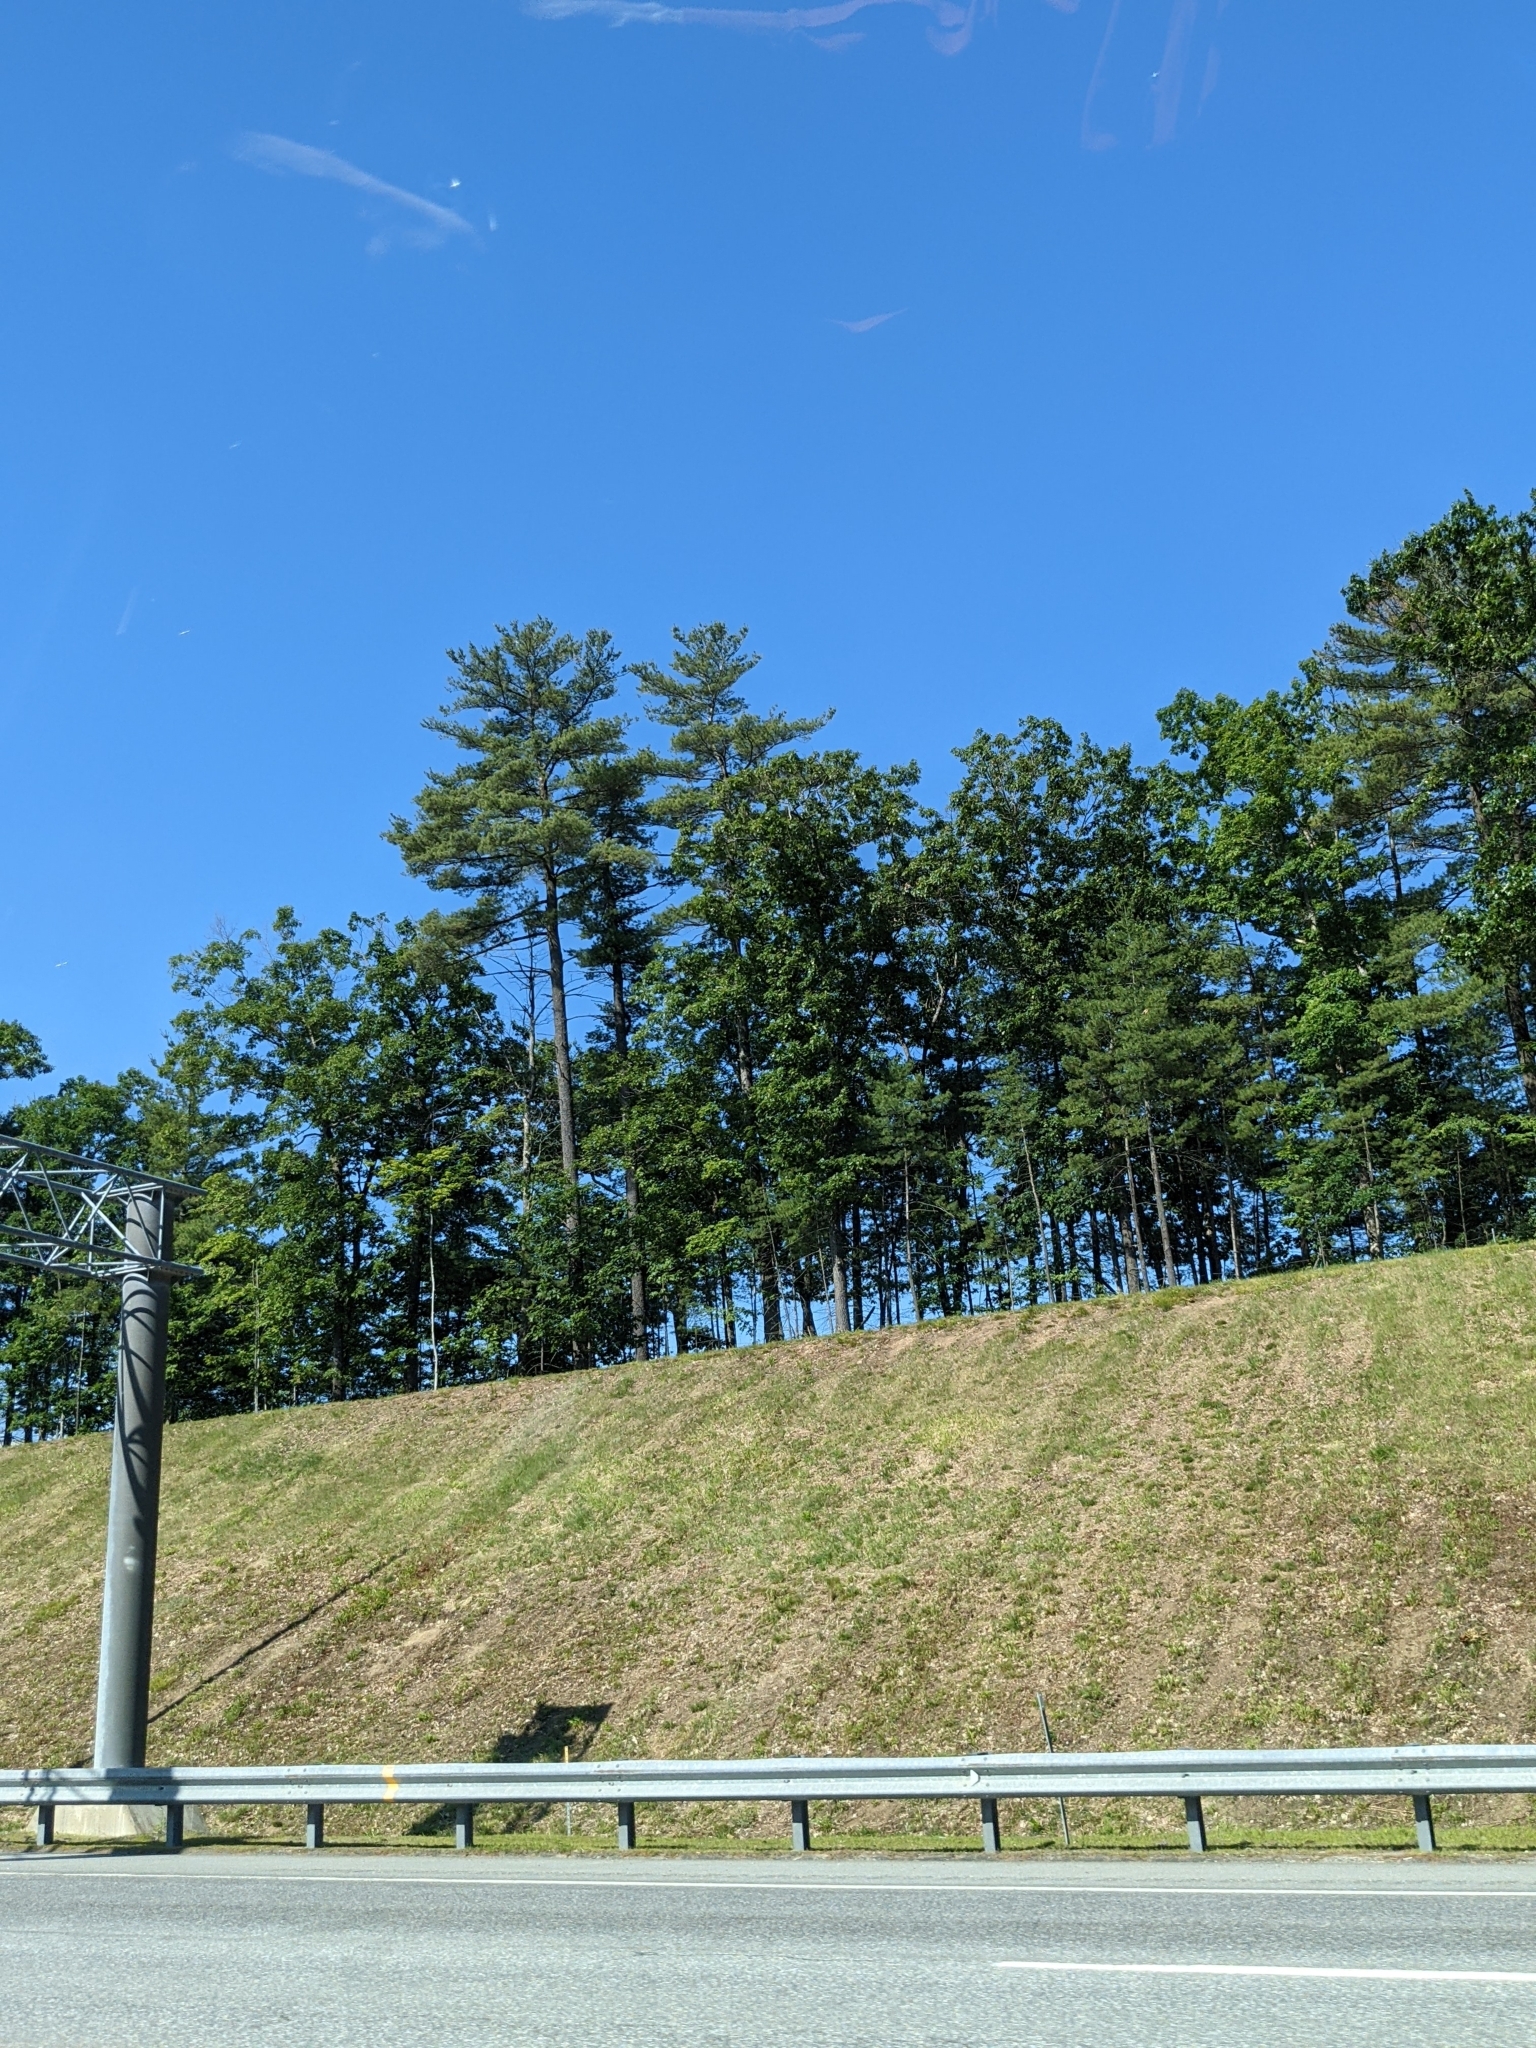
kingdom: Plantae
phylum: Tracheophyta
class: Pinopsida
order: Pinales
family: Pinaceae
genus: Pinus
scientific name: Pinus strobus
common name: Weymouth pine
